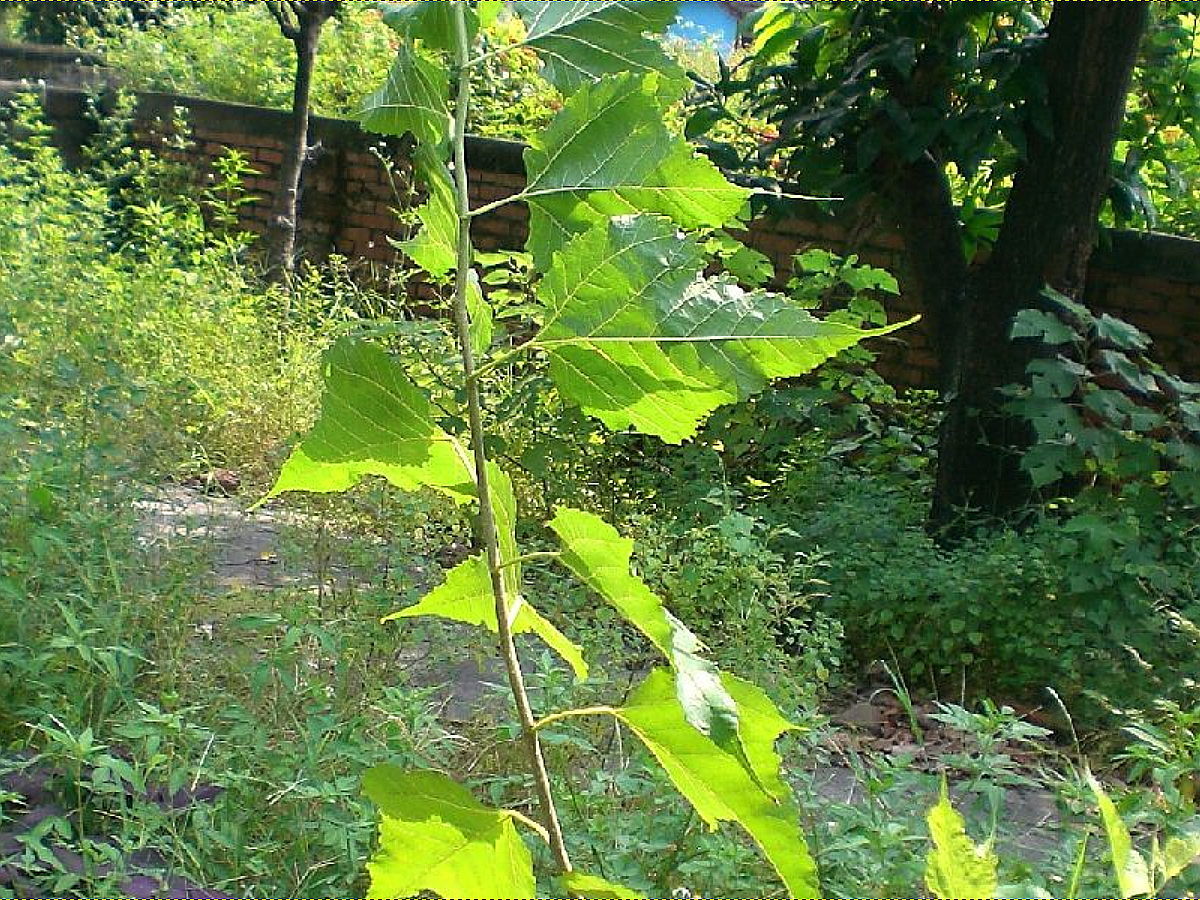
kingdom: Plantae
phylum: Tracheophyta
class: Magnoliopsida
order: Rosales
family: Moraceae
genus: Morus
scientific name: Morus indica
